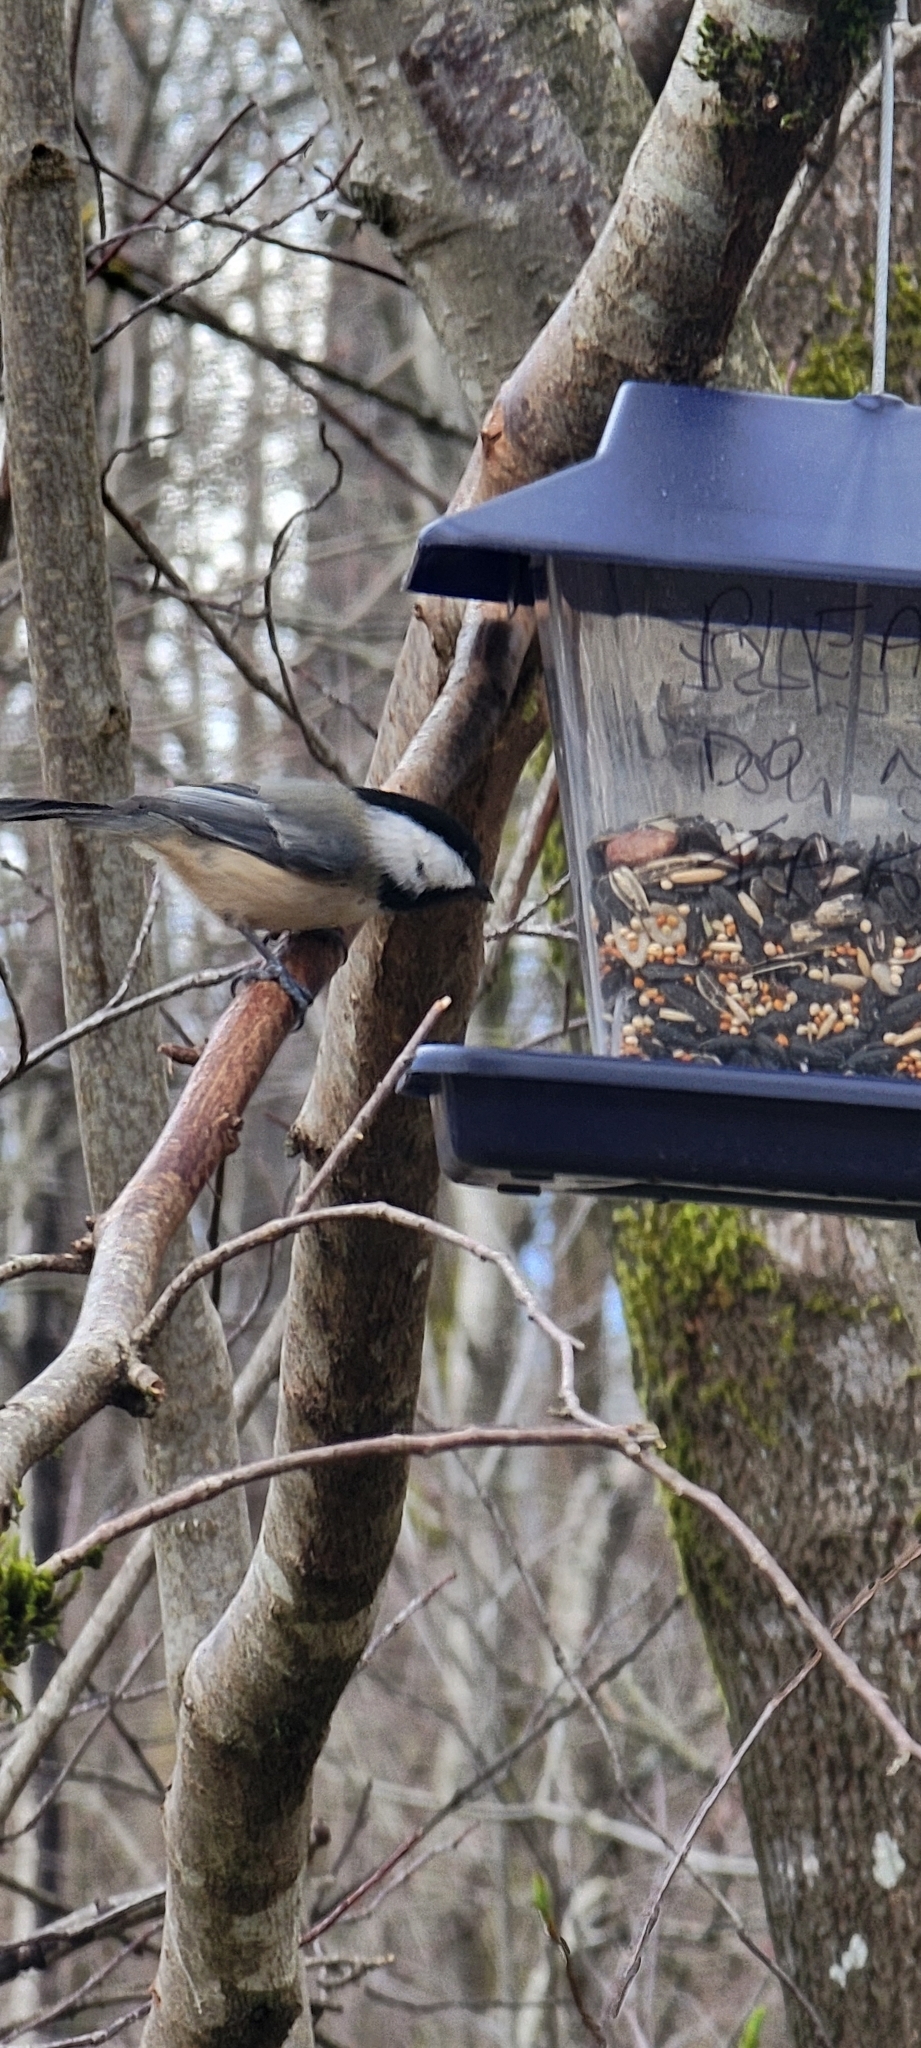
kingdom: Animalia
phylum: Chordata
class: Aves
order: Passeriformes
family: Paridae
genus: Poecile
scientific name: Poecile atricapillus
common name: Black-capped chickadee
